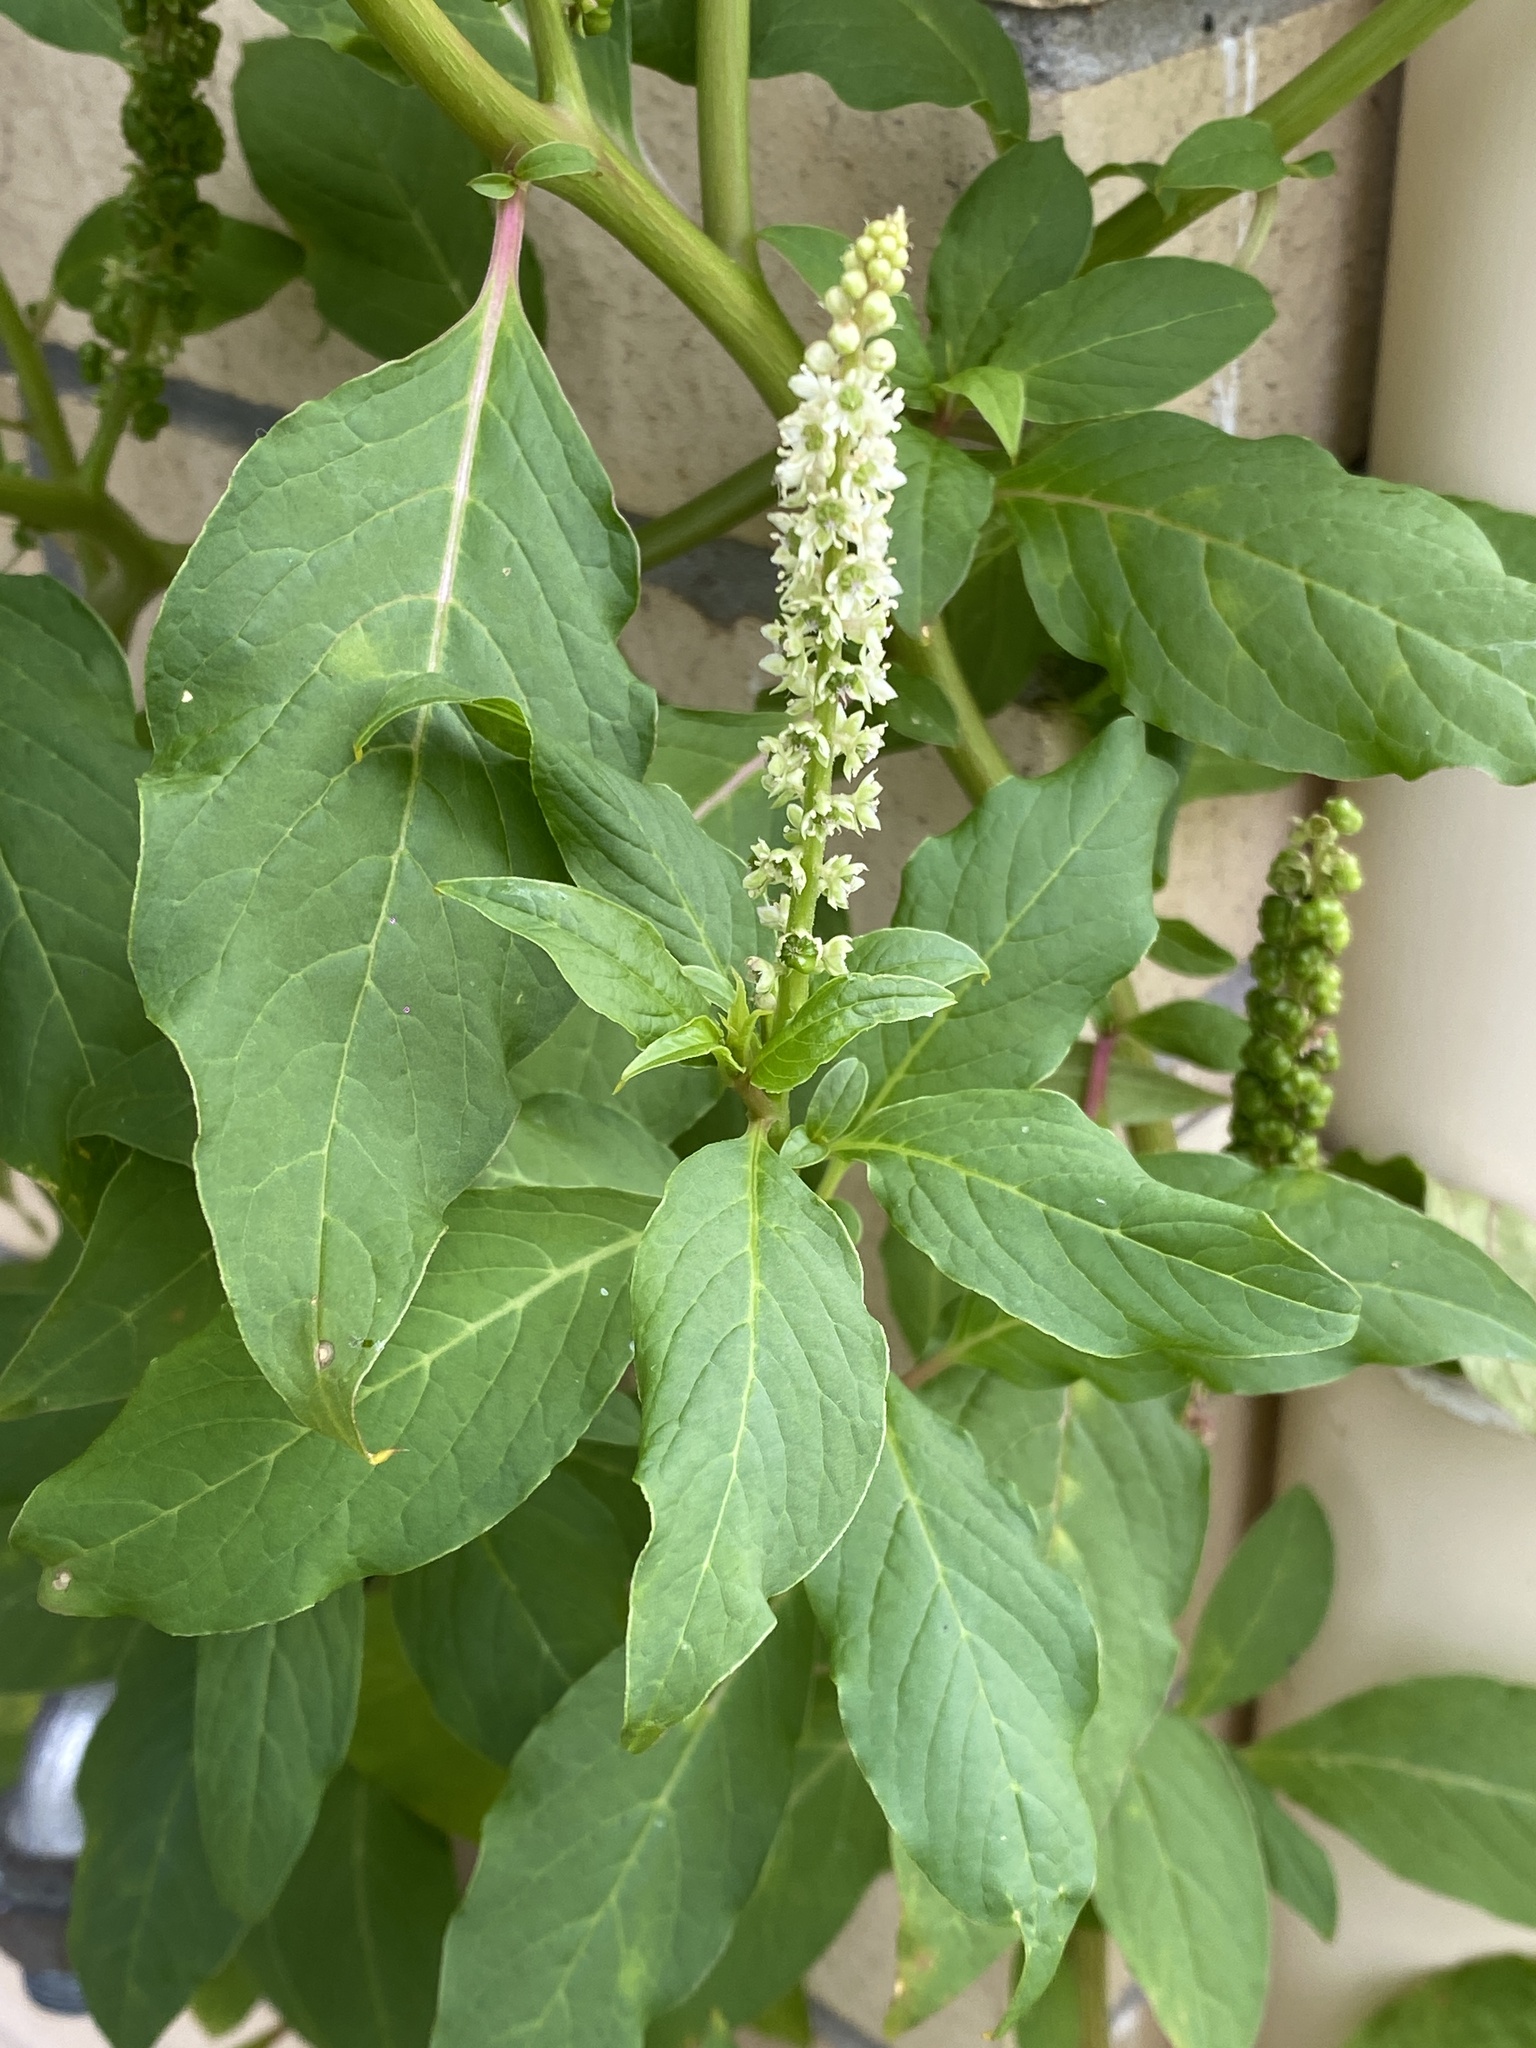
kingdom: Plantae
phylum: Tracheophyta
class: Magnoliopsida
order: Caryophyllales
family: Phytolaccaceae
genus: Phytolacca
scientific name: Phytolacca icosandra
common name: Button pokeweed
